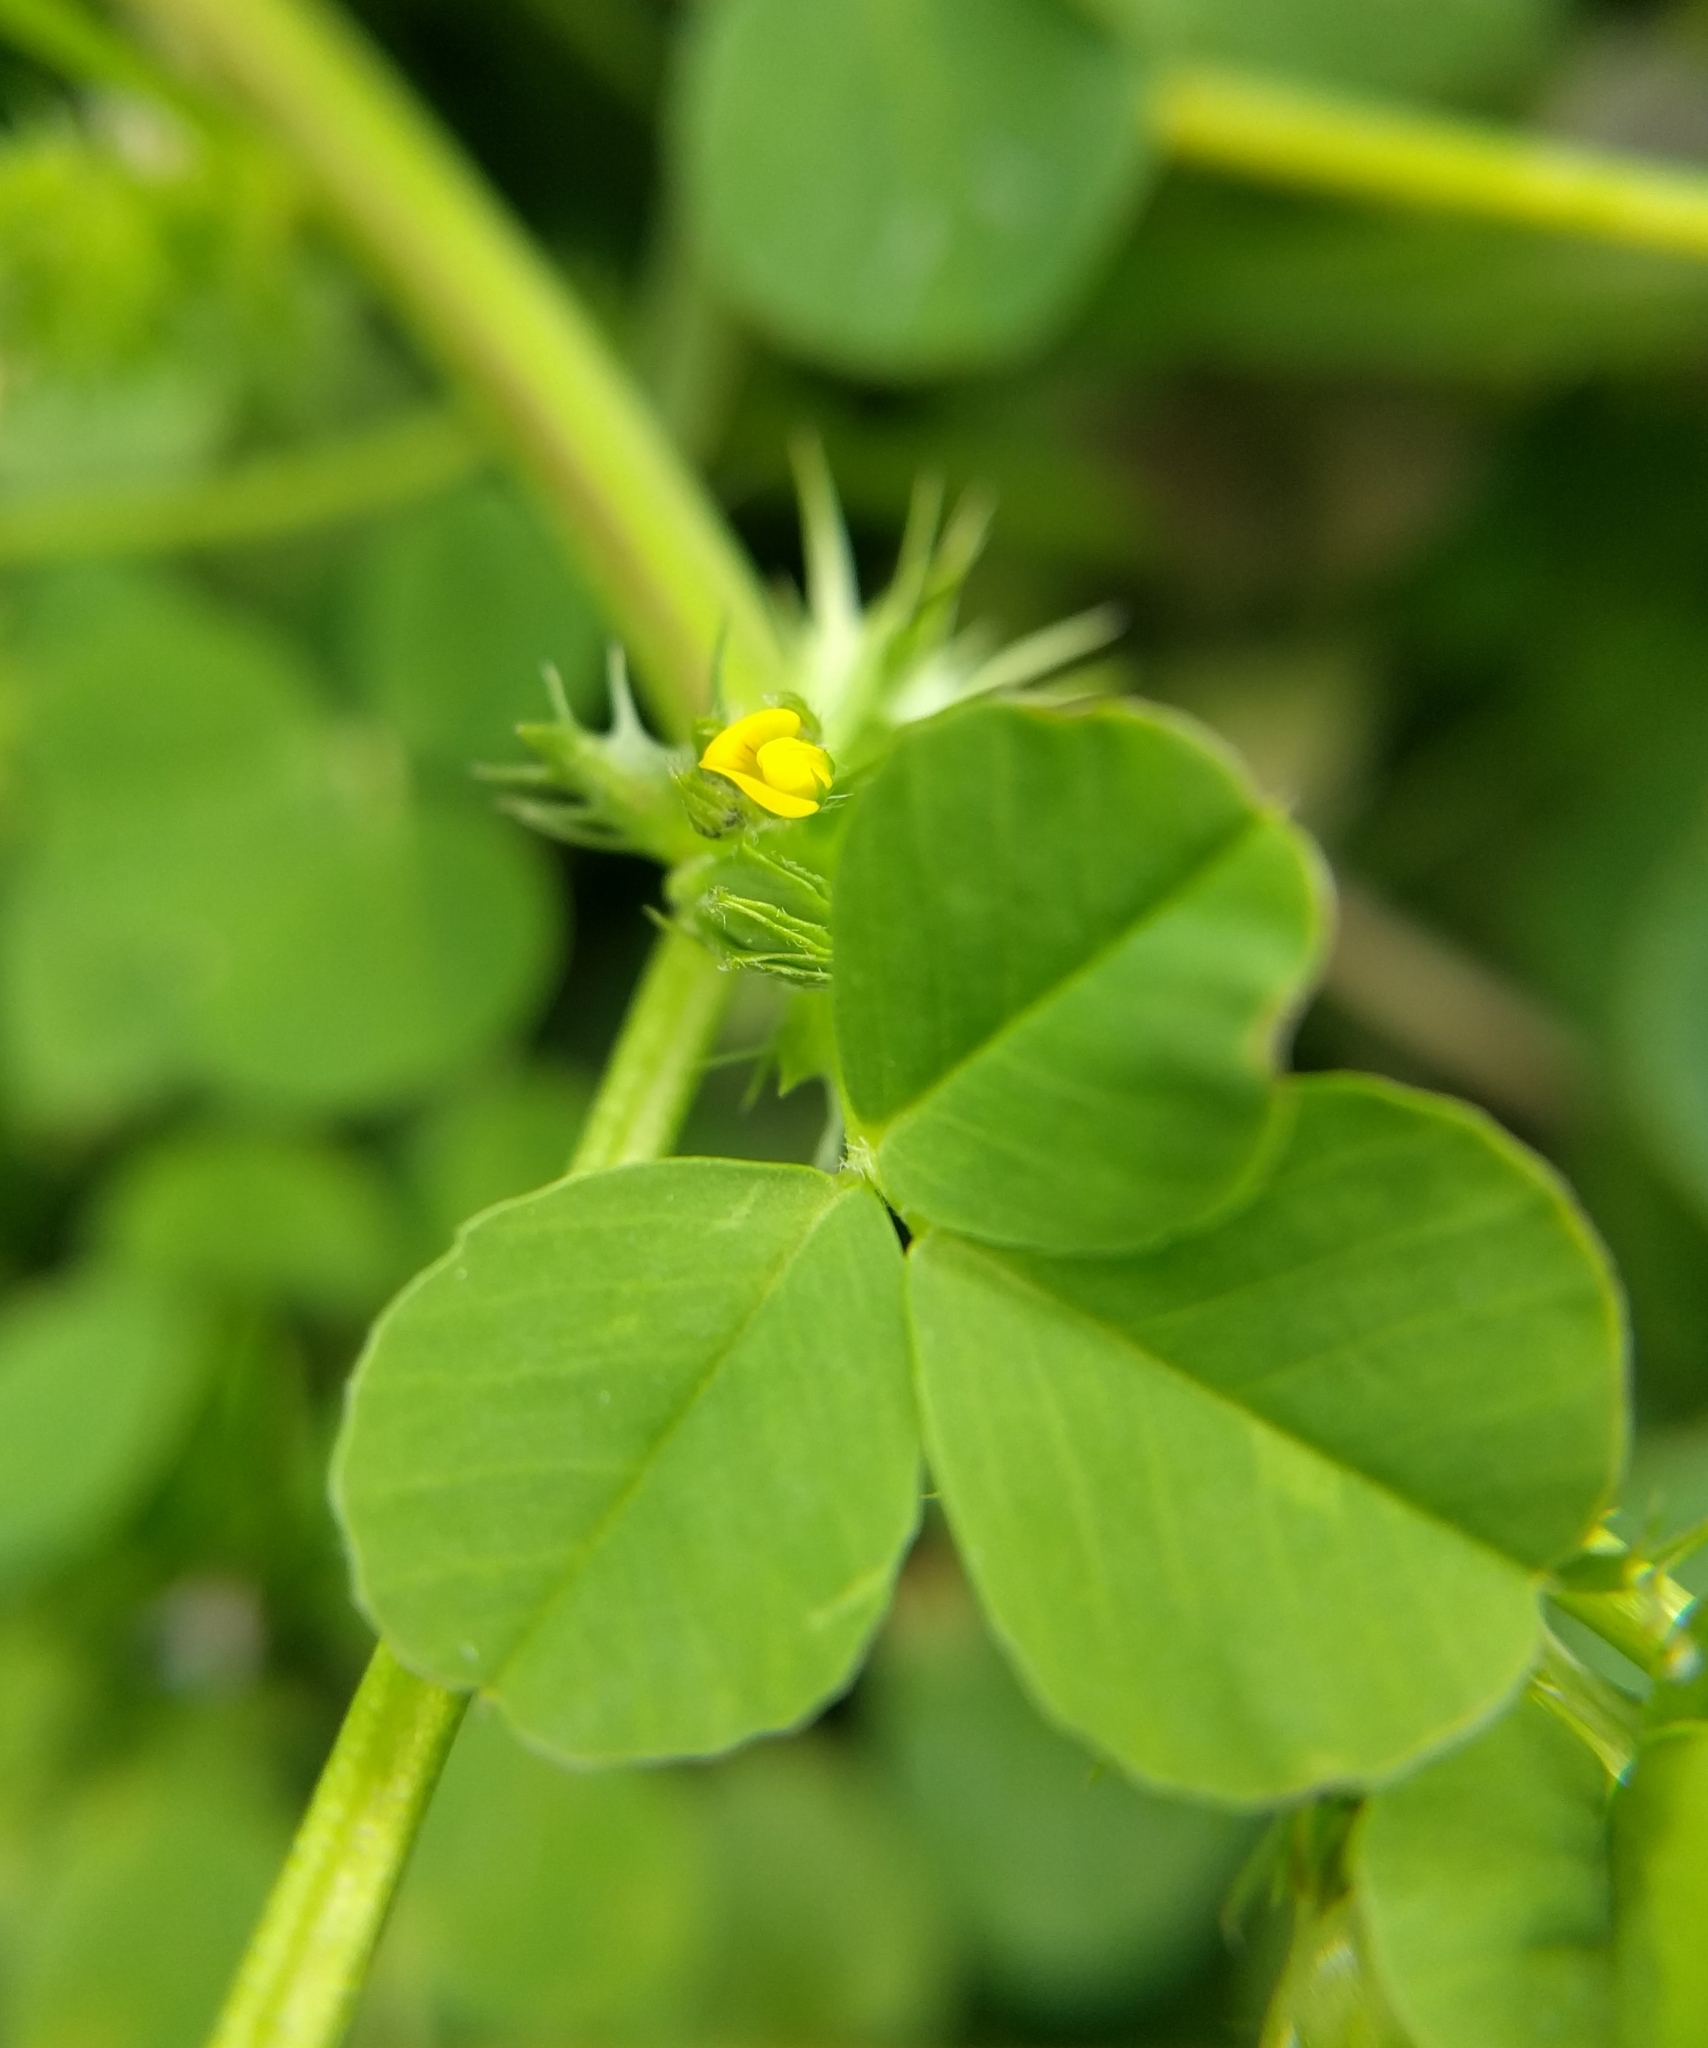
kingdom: Plantae
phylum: Tracheophyta
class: Magnoliopsida
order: Fabales
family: Fabaceae
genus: Medicago
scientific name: Medicago polymorpha
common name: Burclover
